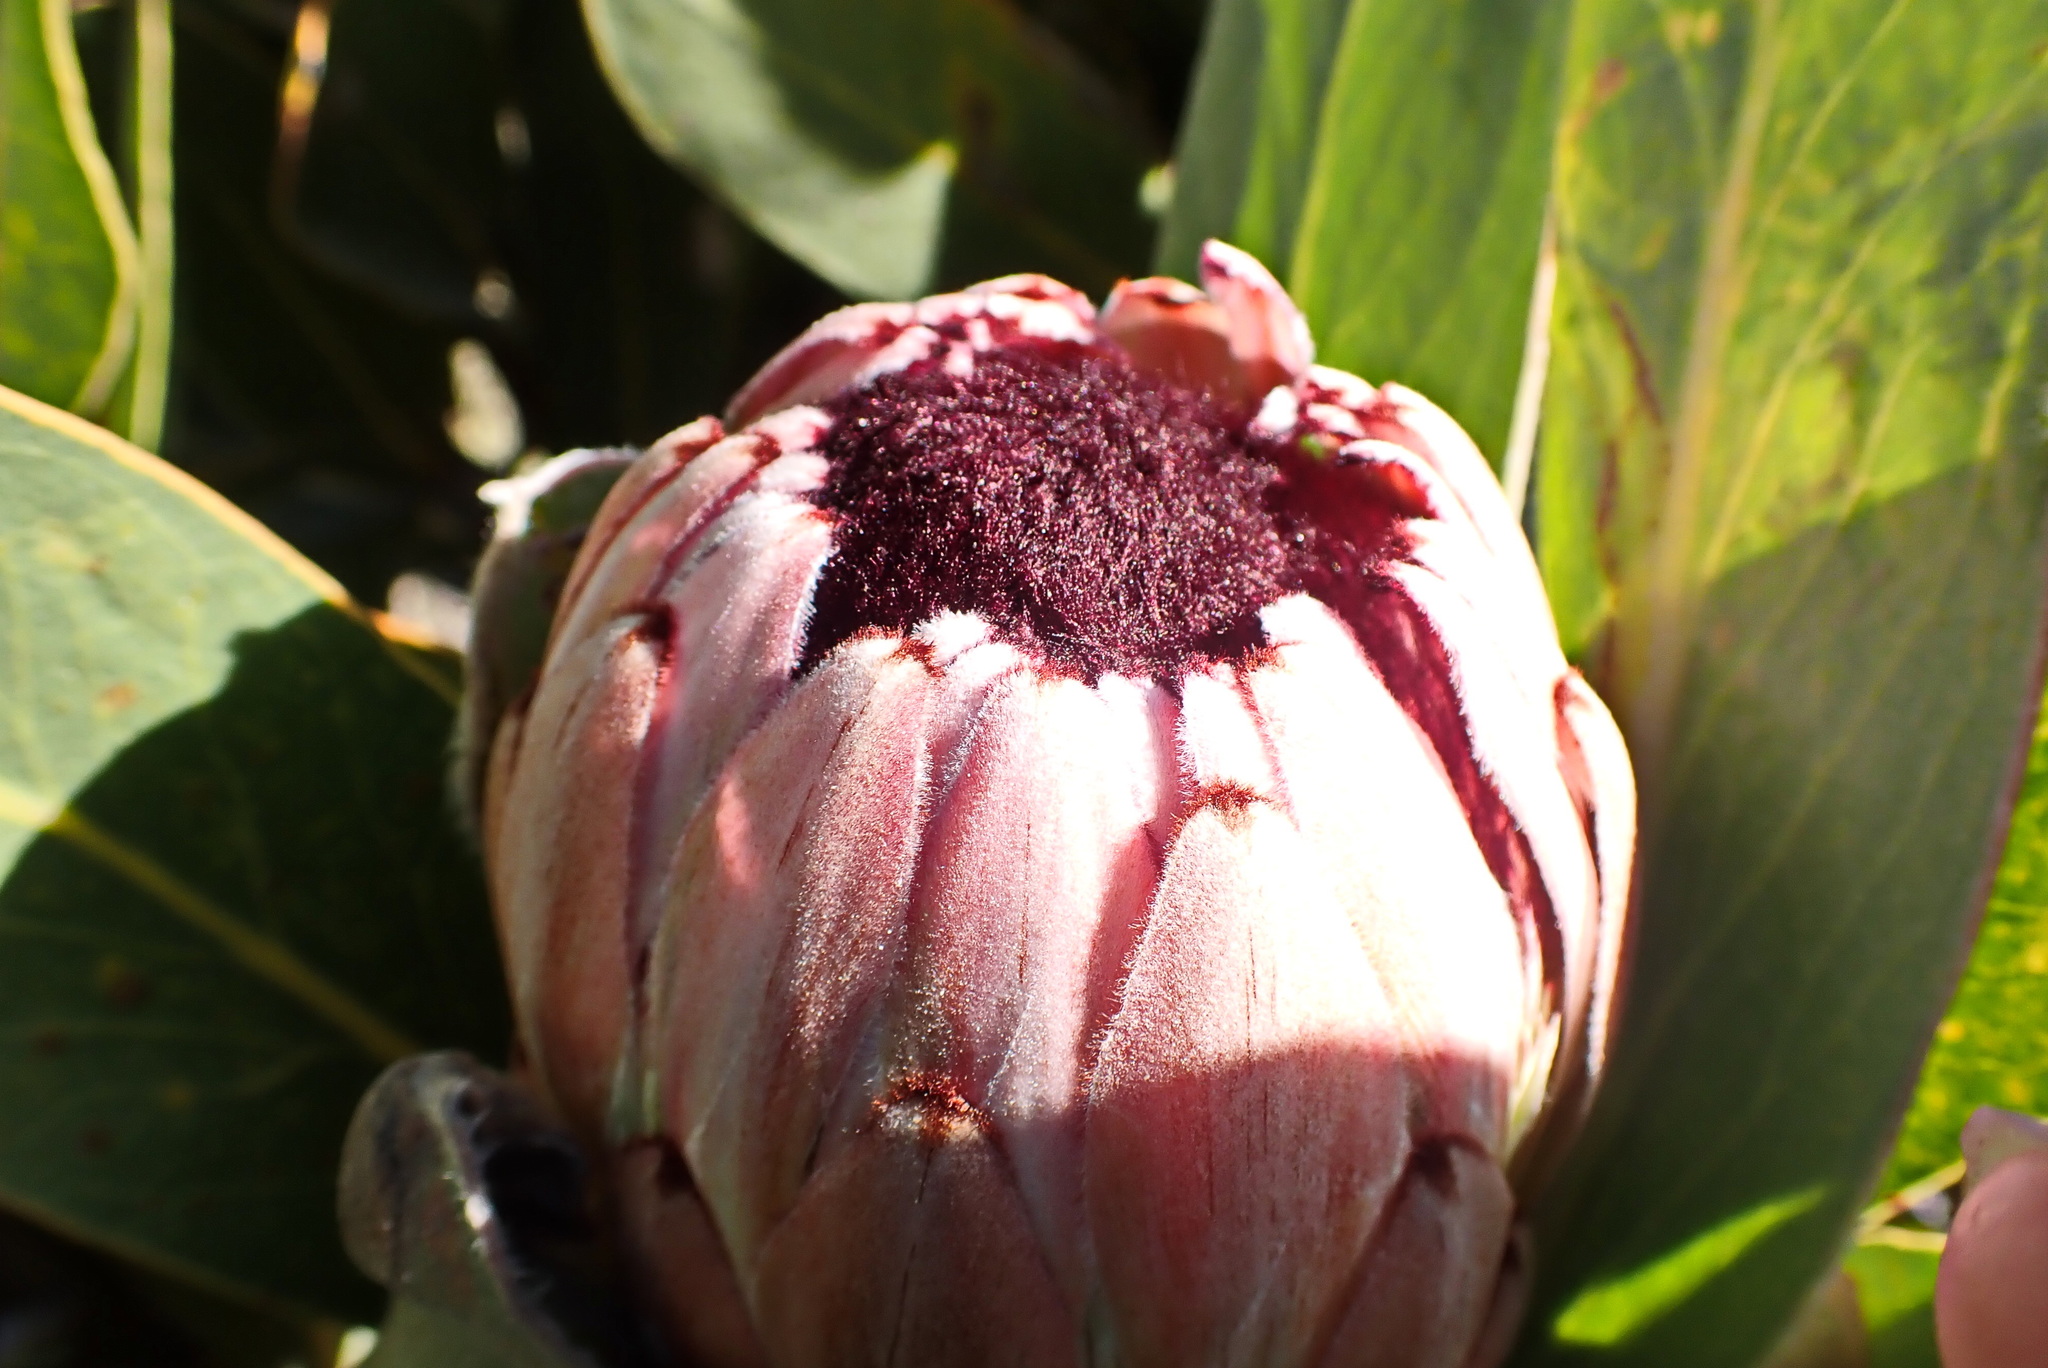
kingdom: Plantae
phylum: Tracheophyta
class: Magnoliopsida
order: Proteales
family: Proteaceae
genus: Protea
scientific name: Protea lorifolia
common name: Strap-leaved protea
